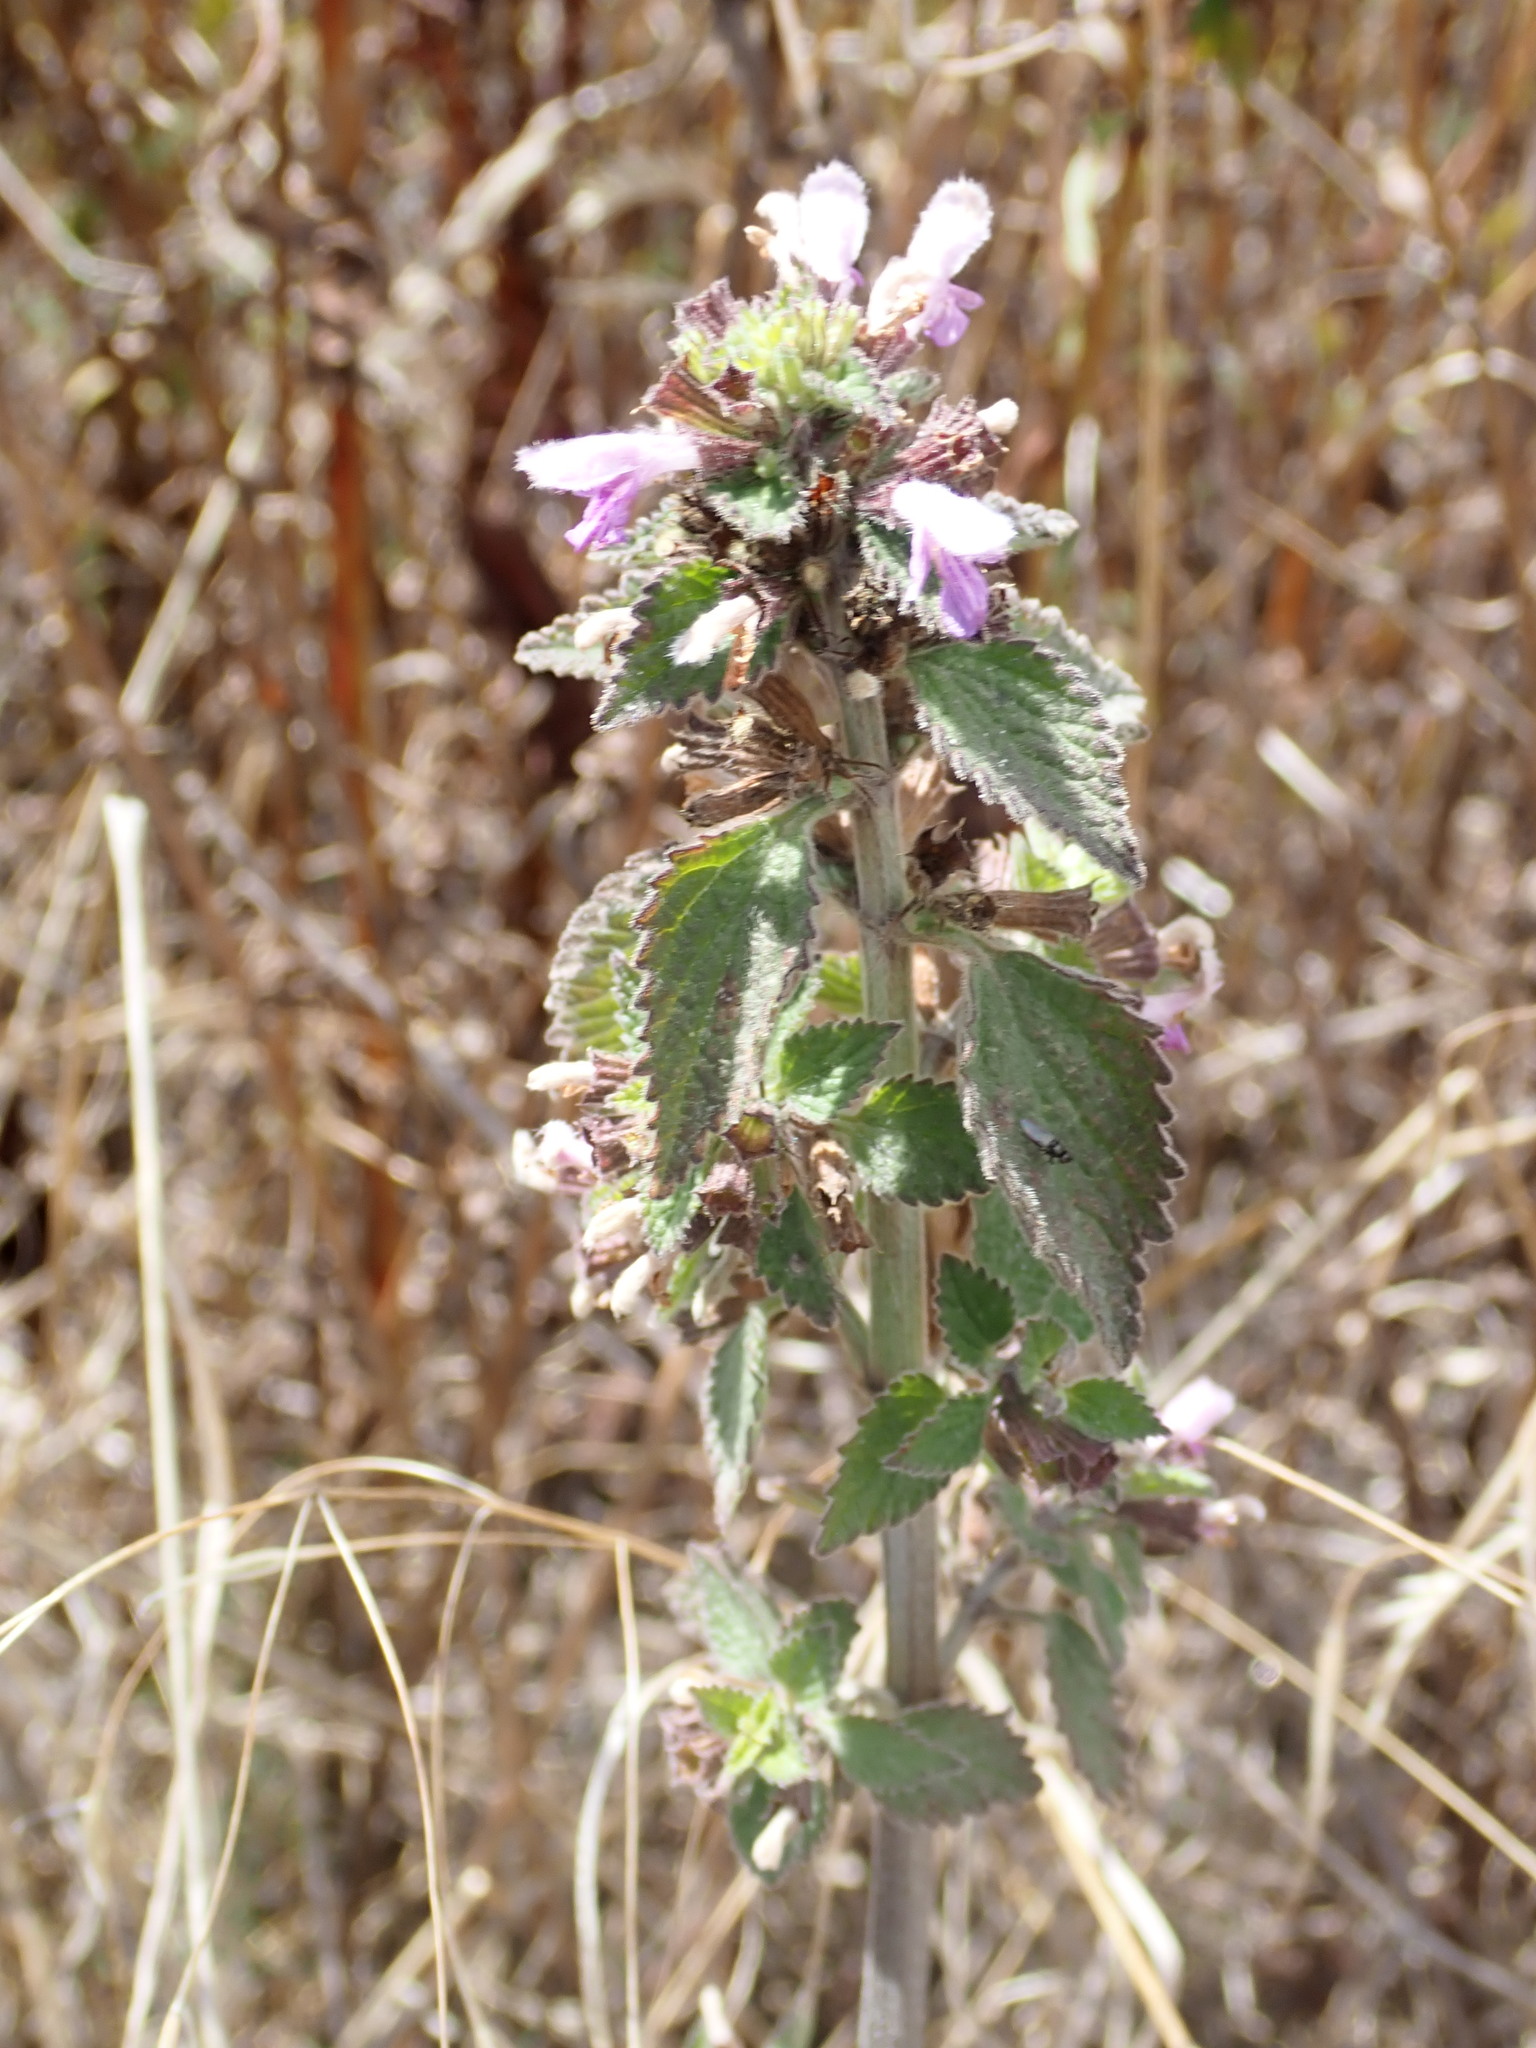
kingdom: Plantae
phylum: Tracheophyta
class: Magnoliopsida
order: Lamiales
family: Lamiaceae
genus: Ballota
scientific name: Ballota nigra
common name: Black horehound
